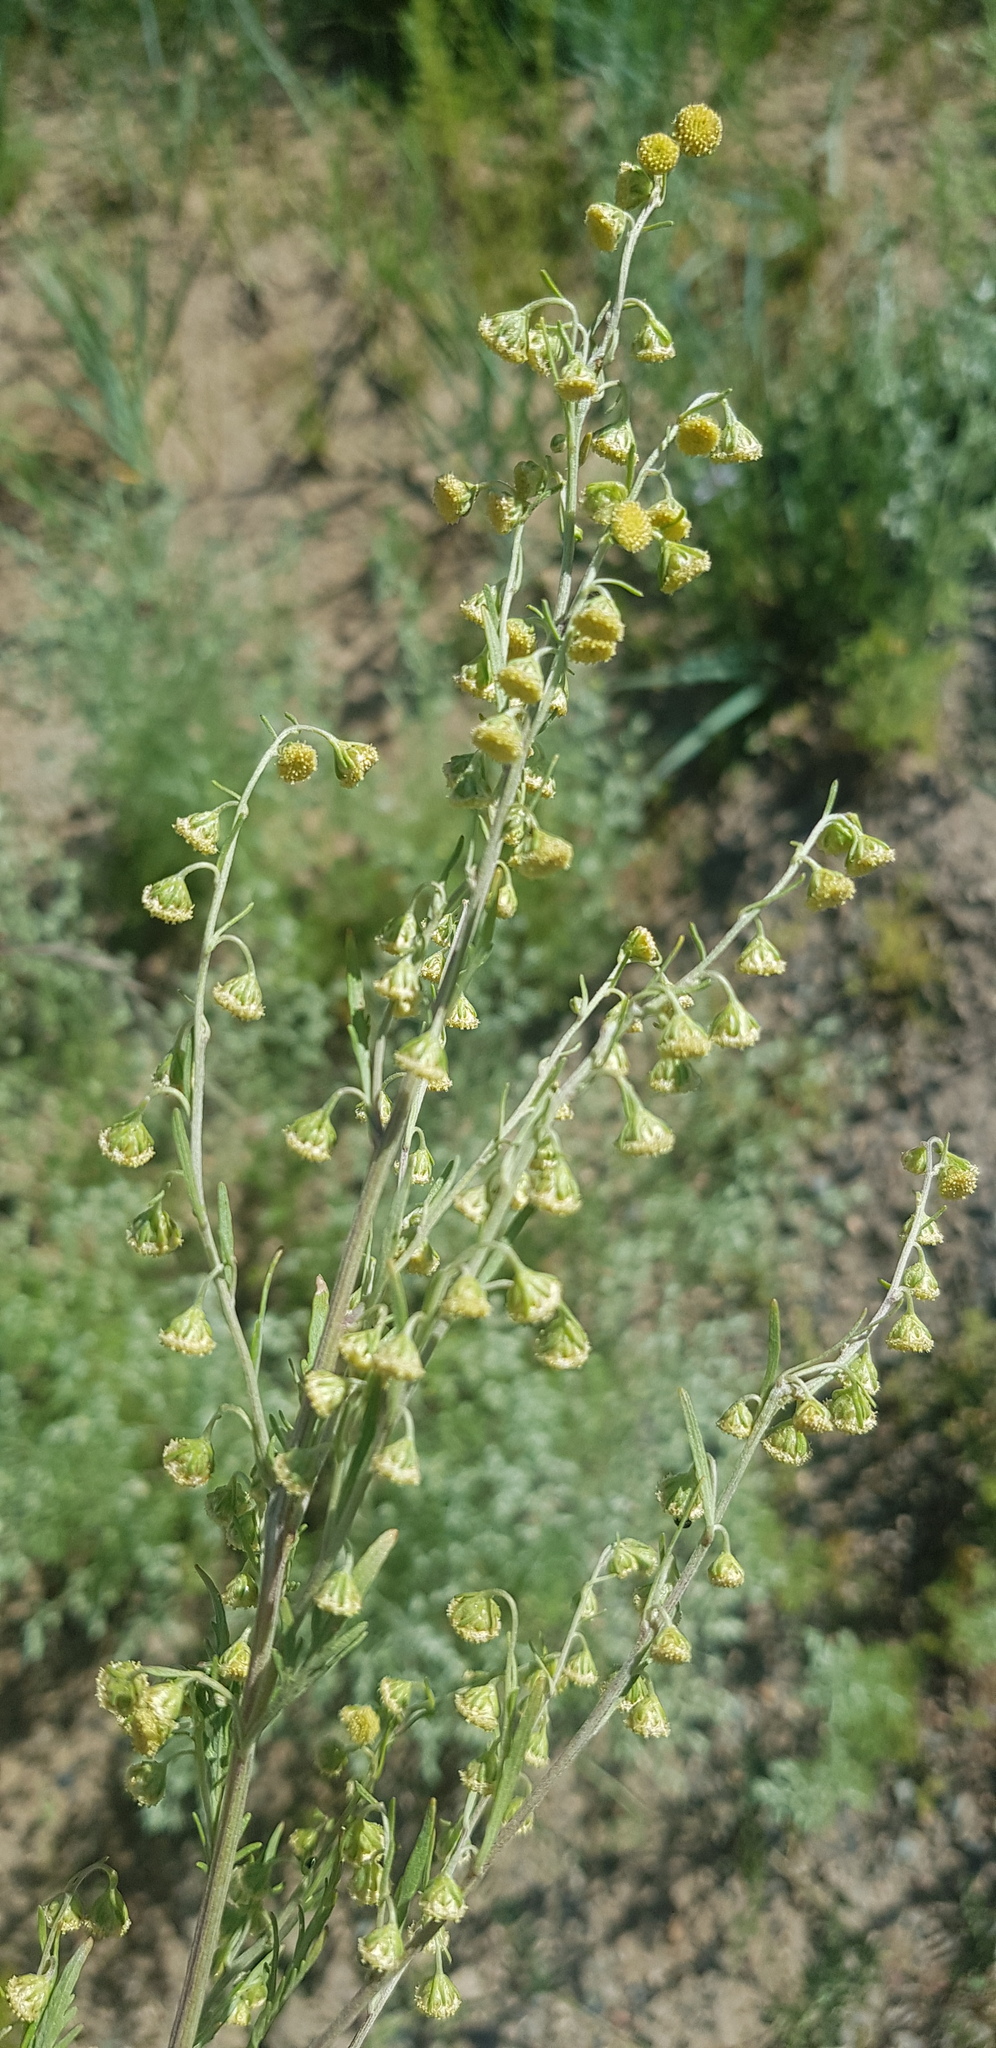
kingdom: Plantae
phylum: Tracheophyta
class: Magnoliopsida
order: Asterales
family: Asteraceae
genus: Artemisia
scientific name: Artemisia macrocephala
